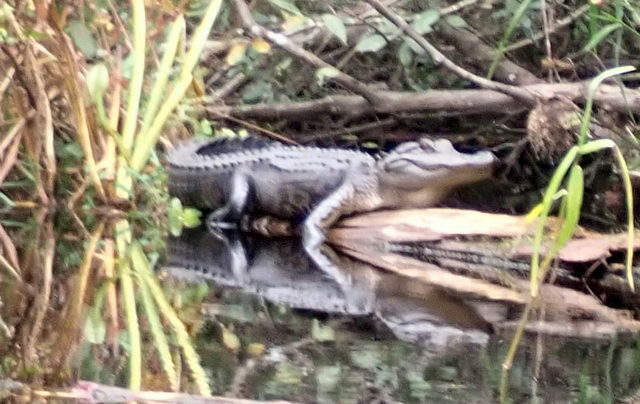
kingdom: Animalia
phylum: Chordata
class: Crocodylia
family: Alligatoridae
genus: Alligator
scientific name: Alligator mississippiensis
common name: American alligator
